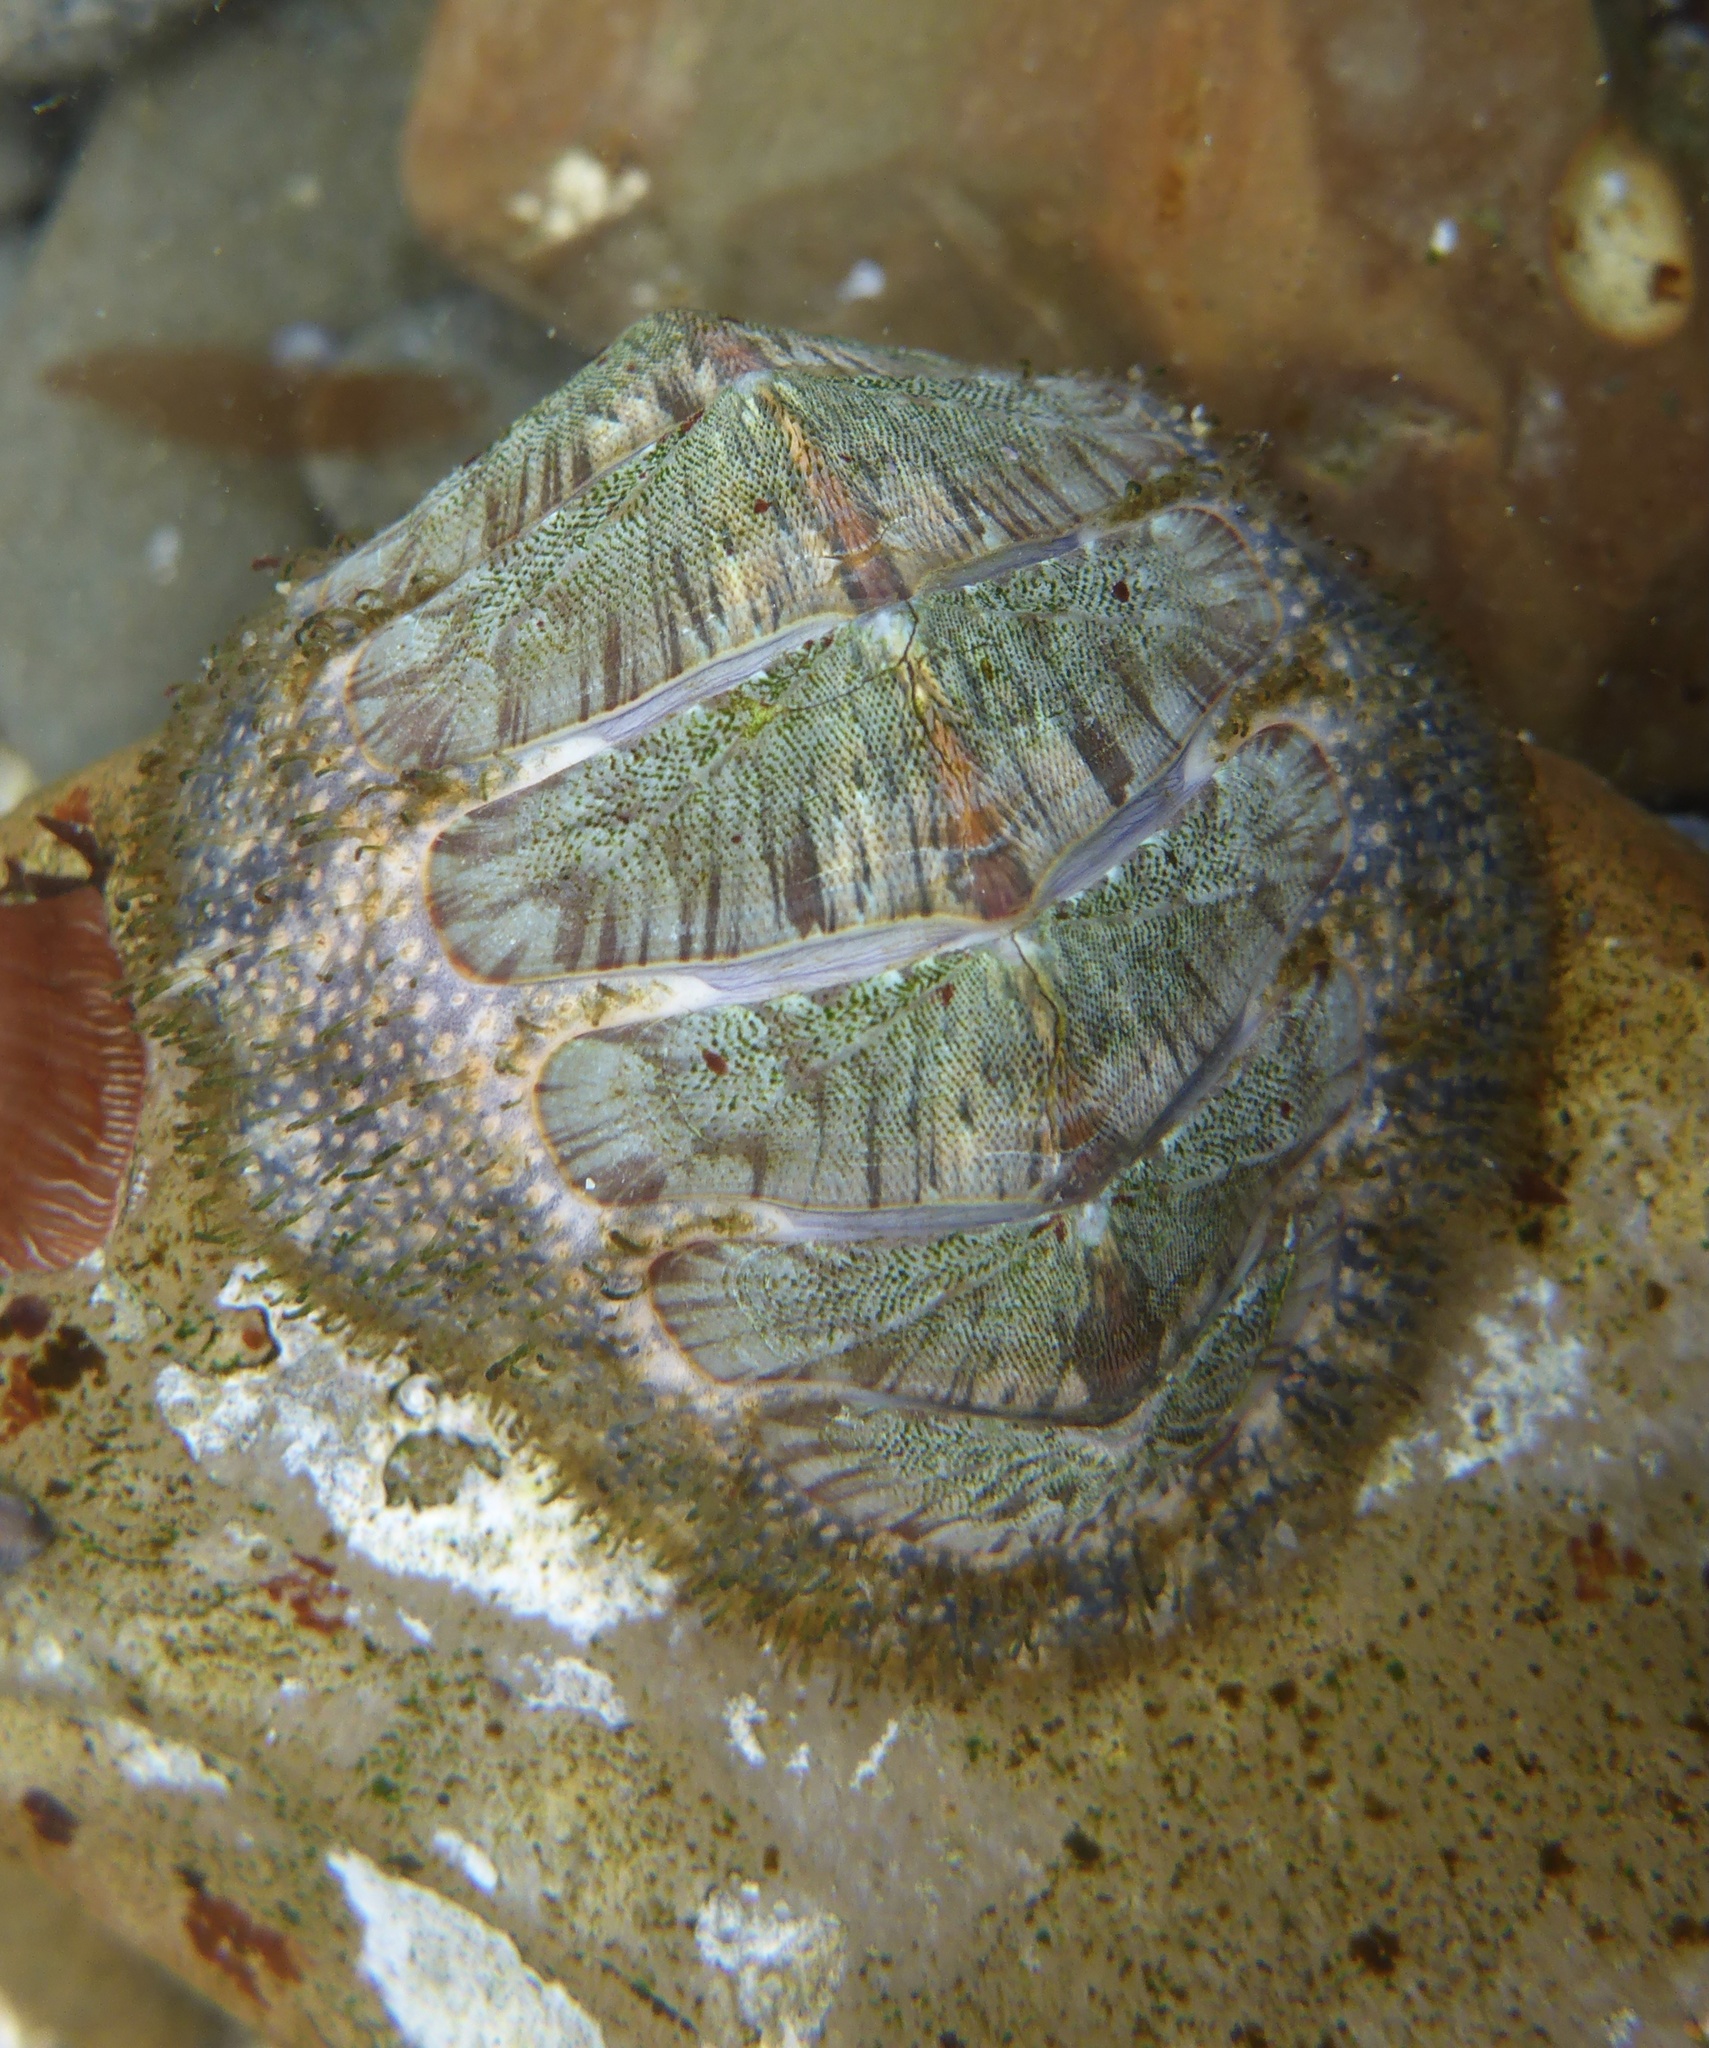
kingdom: Animalia
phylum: Mollusca
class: Polyplacophora
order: Chitonida
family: Mopaliidae
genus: Mopalia
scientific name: Mopalia lignosa
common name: Woody chiton
